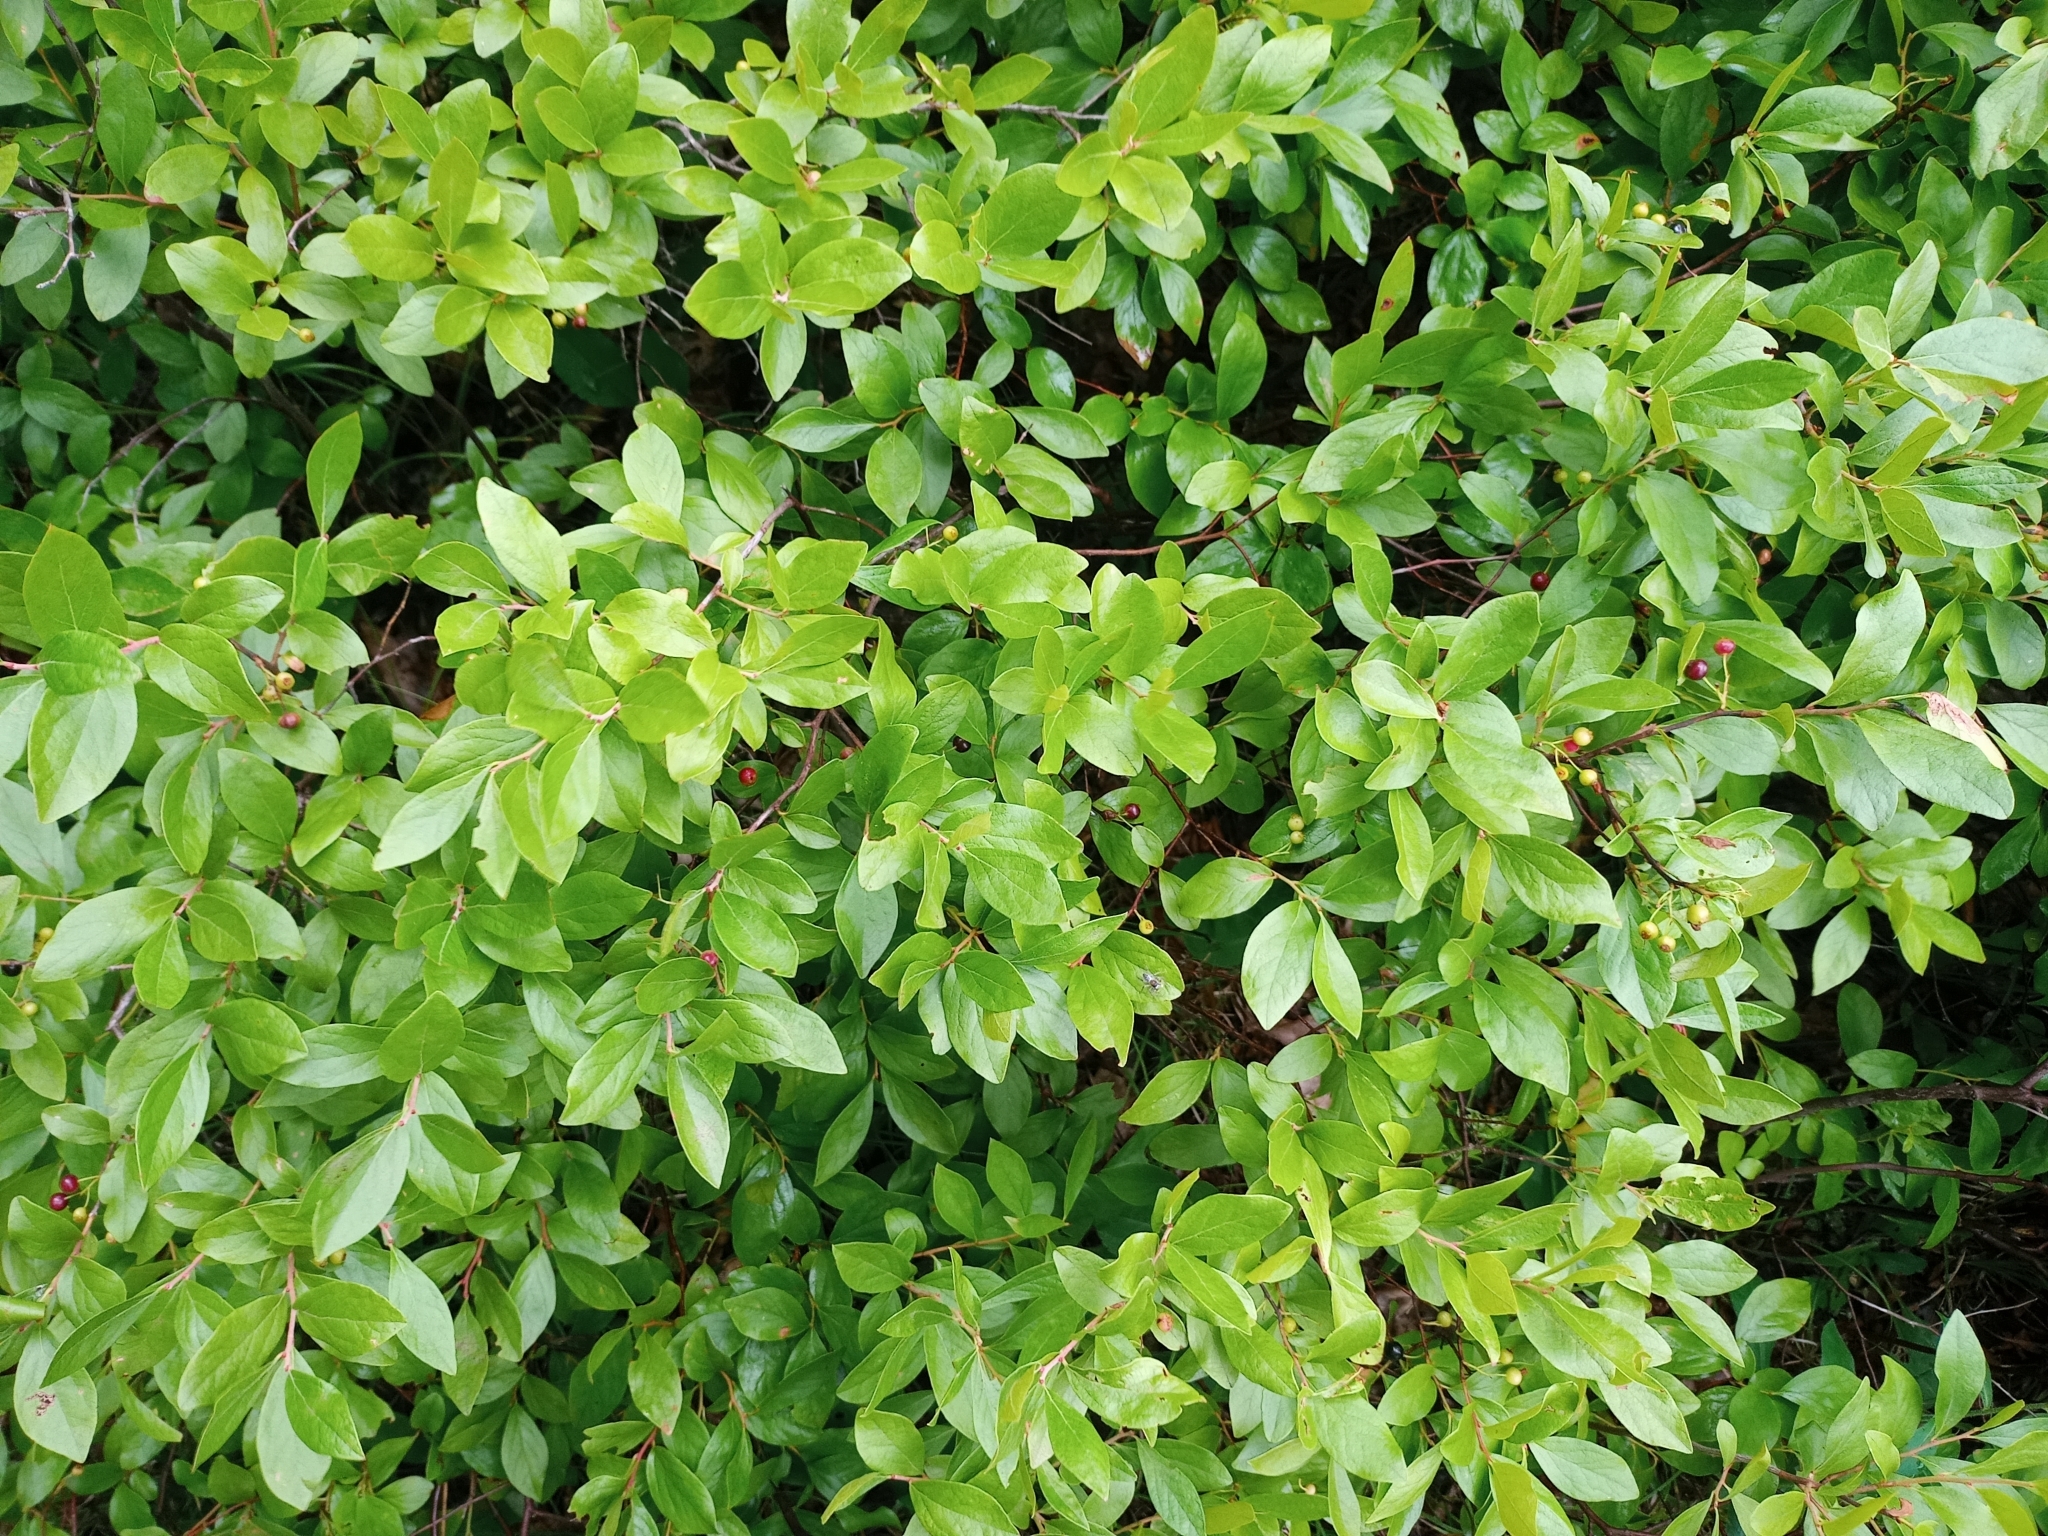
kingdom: Plantae
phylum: Tracheophyta
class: Magnoliopsida
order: Ericales
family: Ericaceae
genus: Gaylussacia
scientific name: Gaylussacia baccata
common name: Black huckleberry
